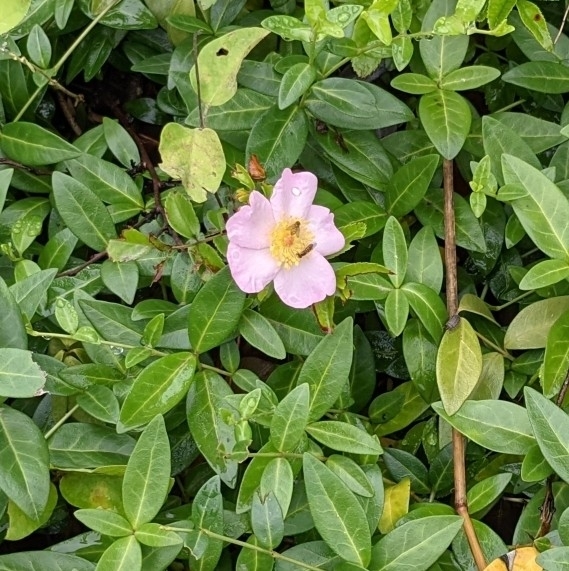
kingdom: Plantae
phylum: Tracheophyta
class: Magnoliopsida
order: Rosales
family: Rosaceae
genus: Rosa
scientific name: Rosa carolina
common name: Pasture rose
